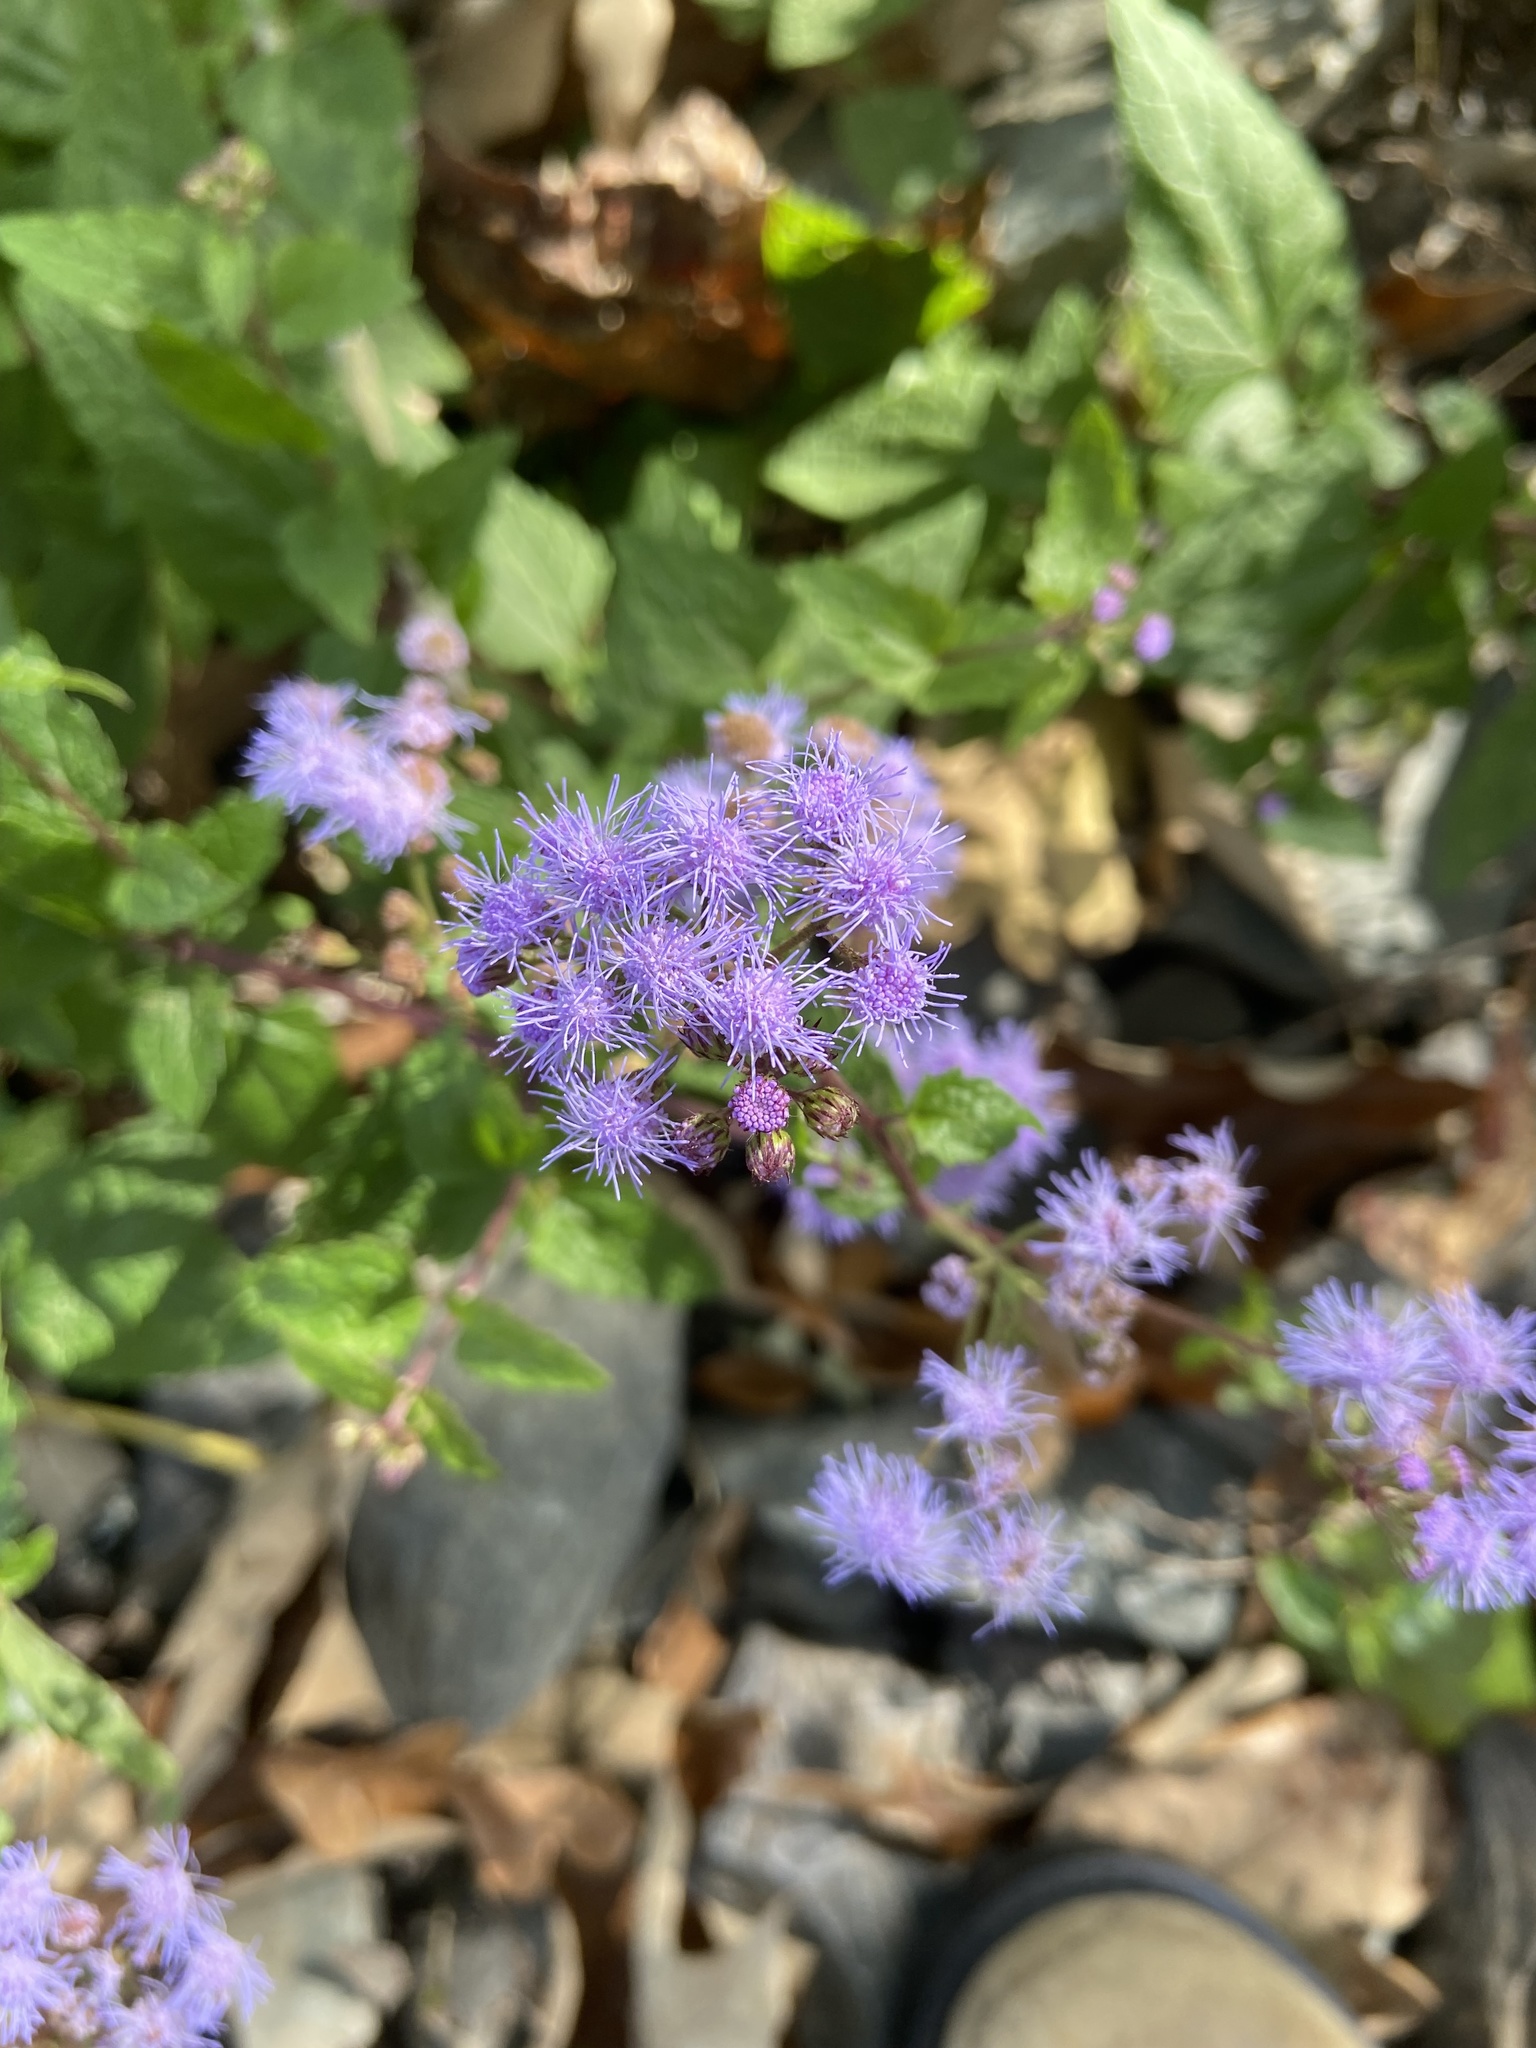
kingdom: Plantae
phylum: Tracheophyta
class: Magnoliopsida
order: Asterales
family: Asteraceae
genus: Conoclinium
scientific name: Conoclinium coelestinum
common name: Blue mistflower
